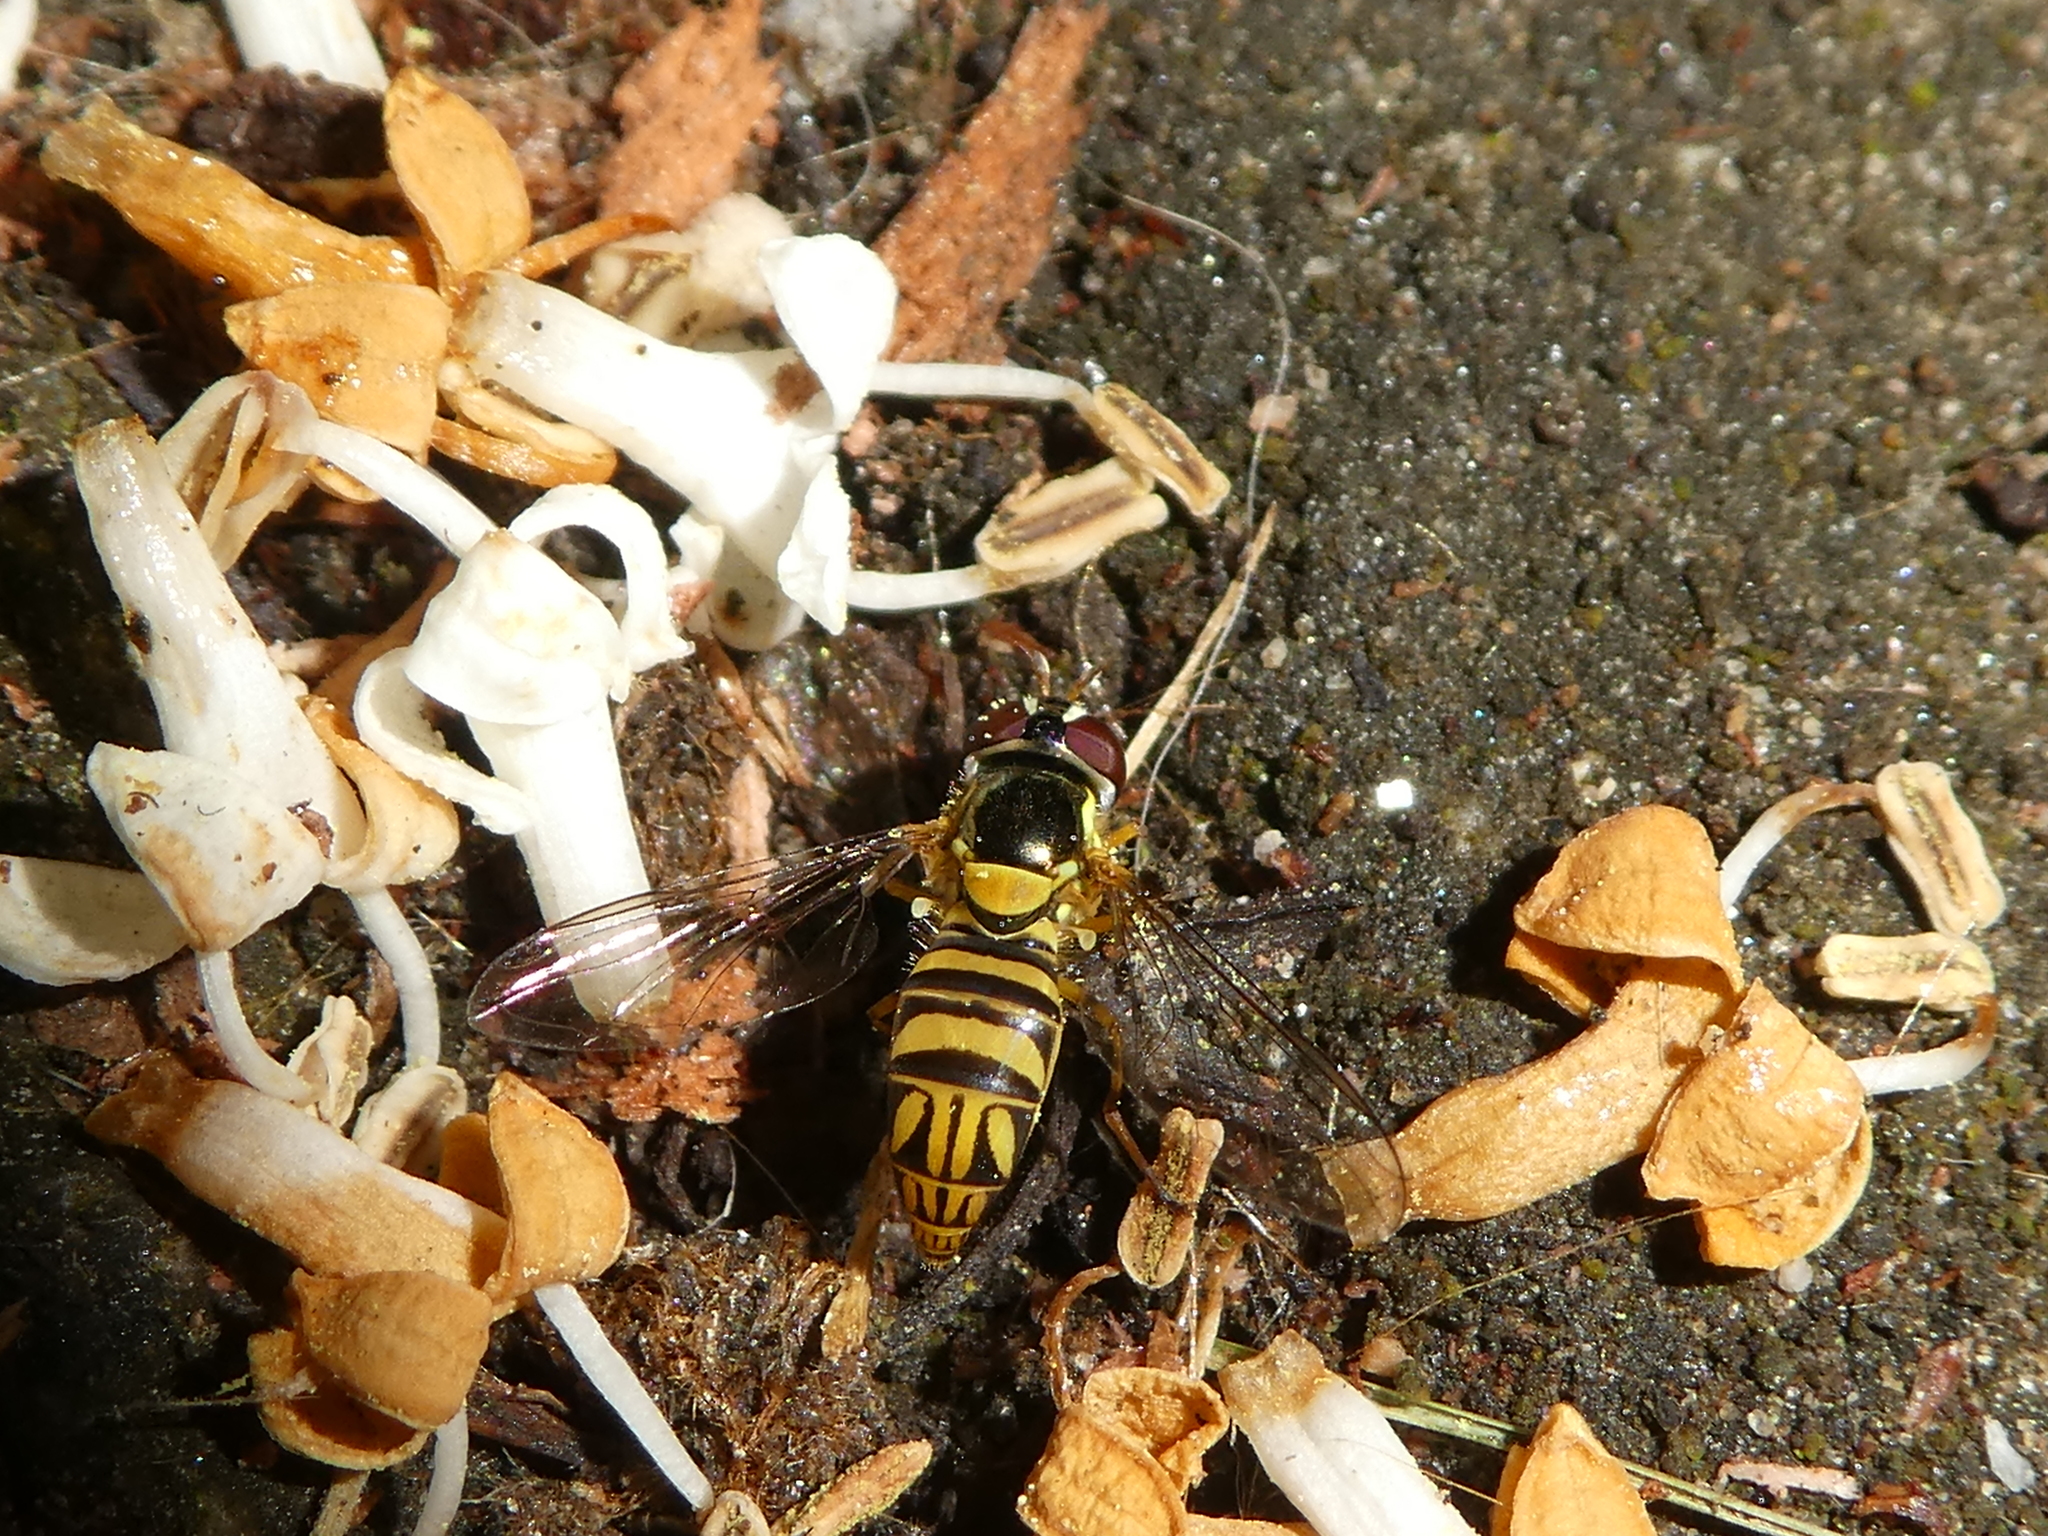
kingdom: Animalia
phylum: Arthropoda
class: Insecta
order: Diptera
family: Syrphidae
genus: Allograpta
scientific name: Allograpta obliqua
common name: Common oblique syrphid
